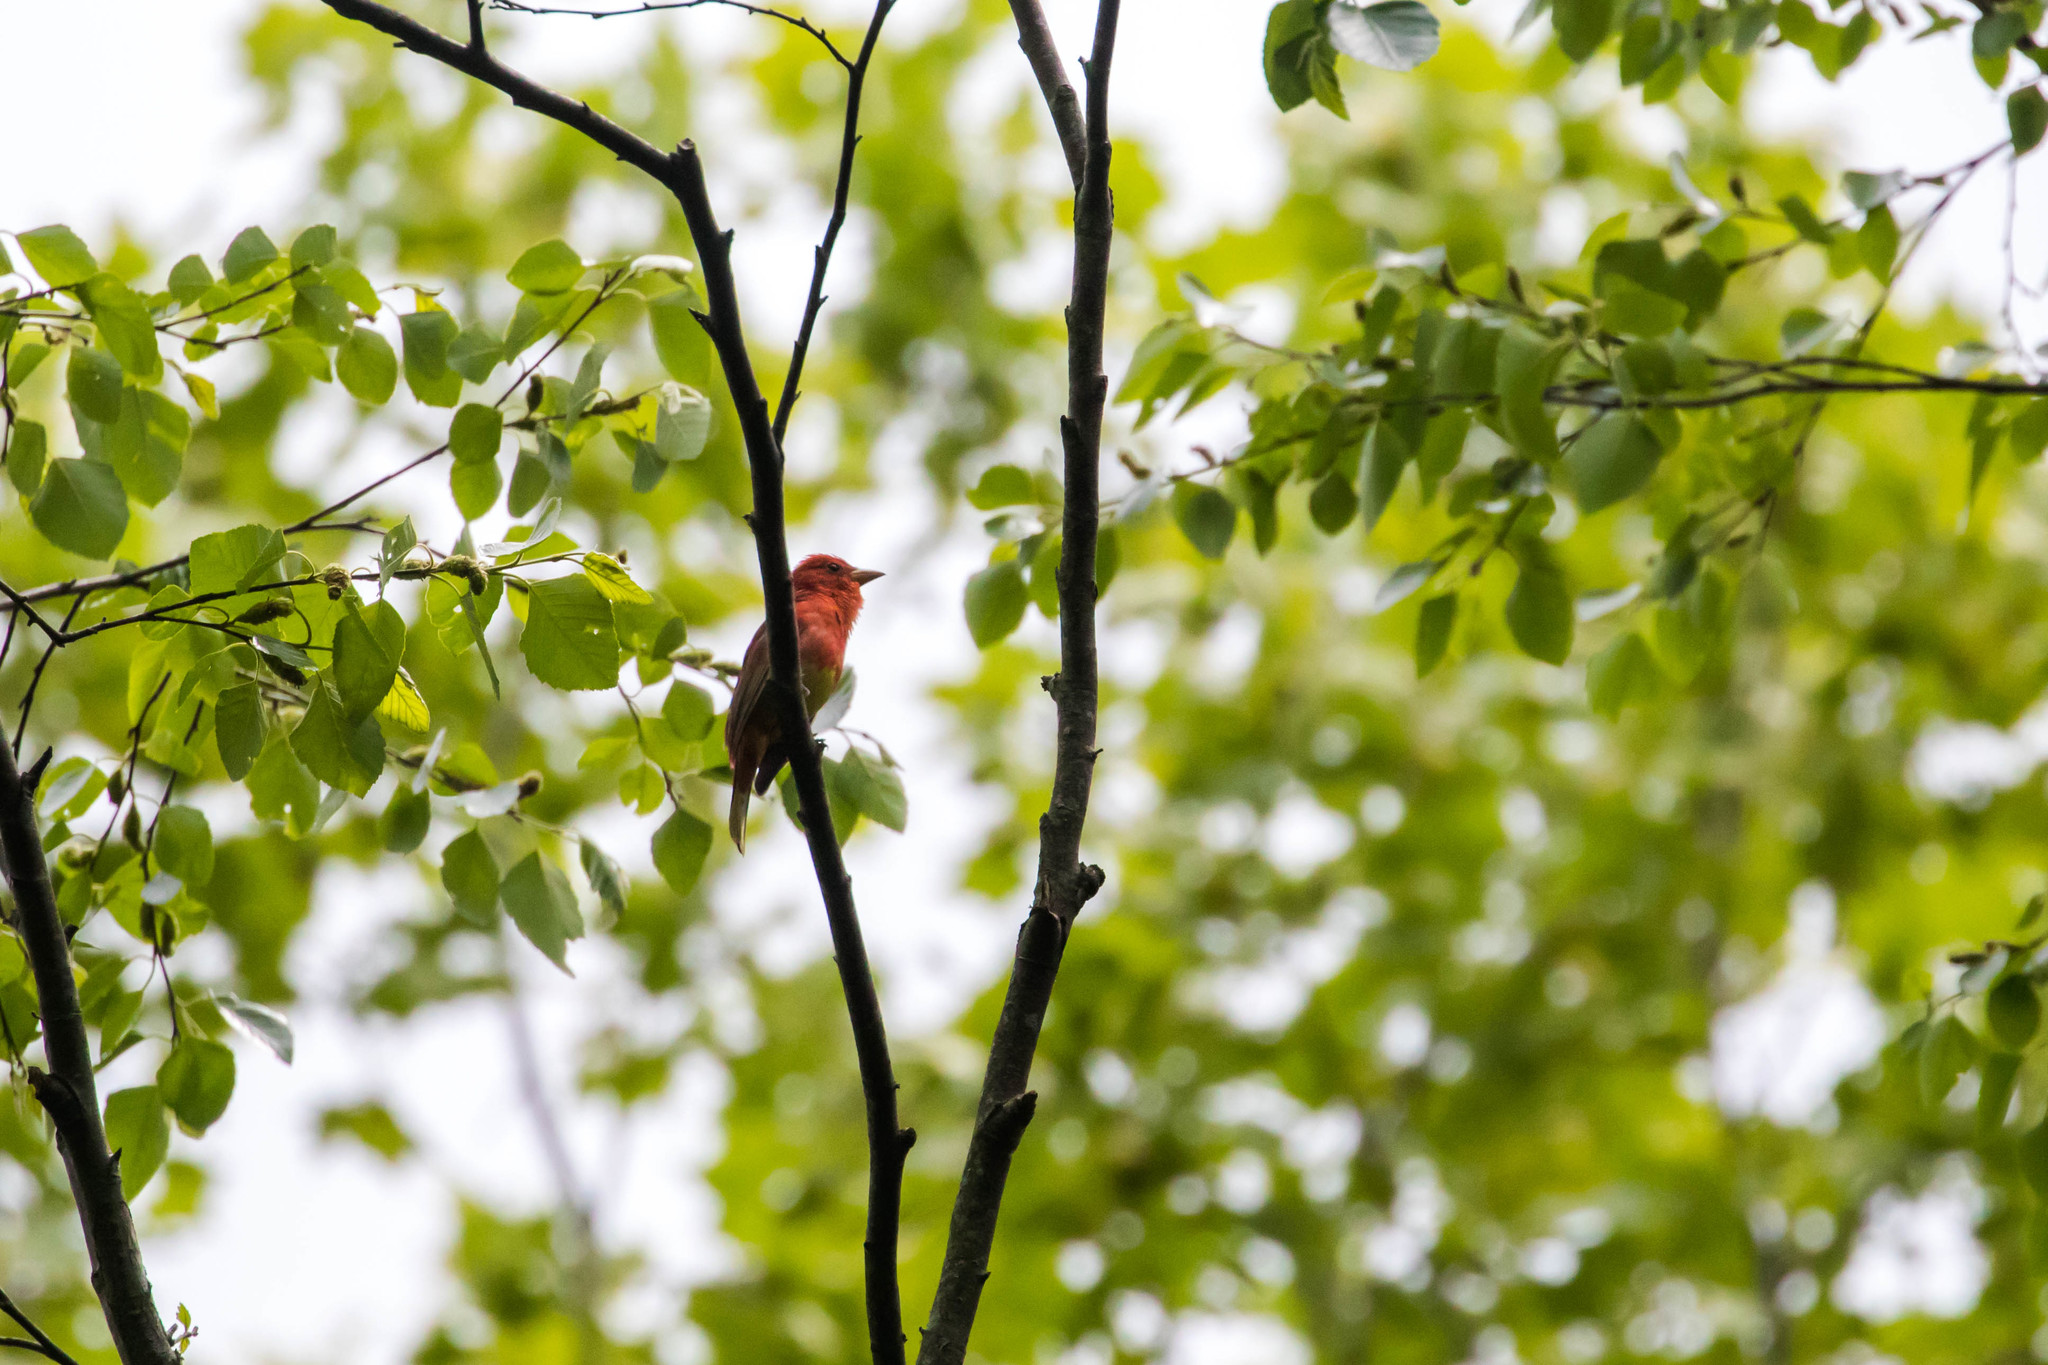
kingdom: Animalia
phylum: Chordata
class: Aves
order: Passeriformes
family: Cardinalidae
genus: Piranga
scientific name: Piranga rubra
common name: Summer tanager
